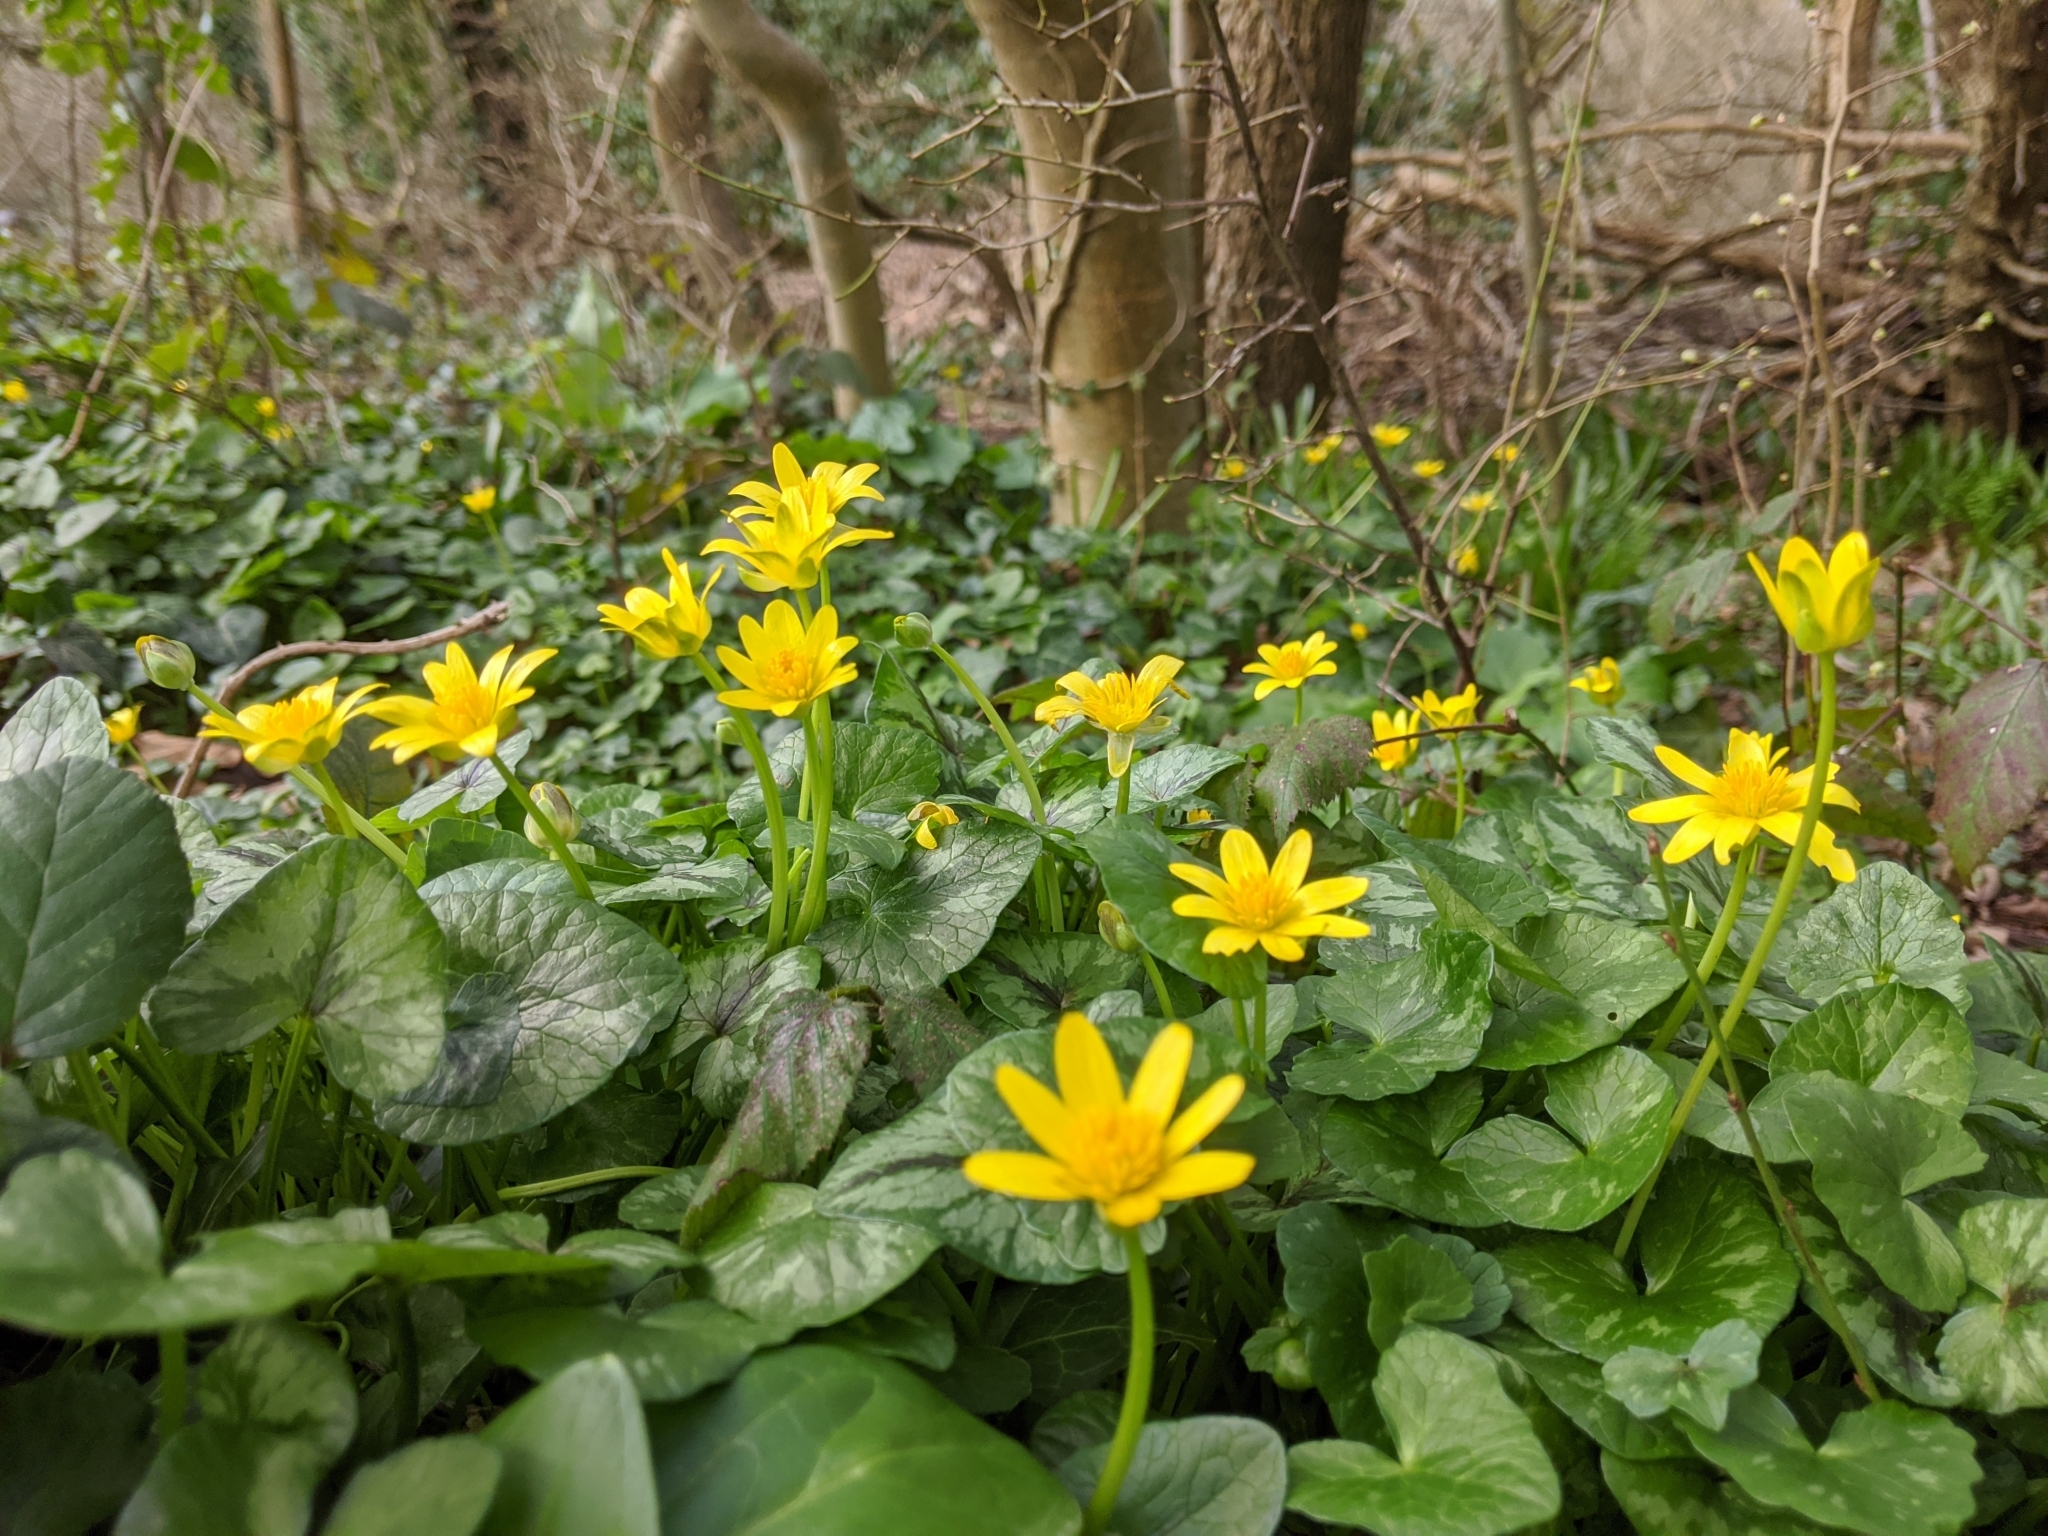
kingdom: Plantae
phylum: Tracheophyta
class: Magnoliopsida
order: Ranunculales
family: Ranunculaceae
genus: Ficaria
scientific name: Ficaria verna
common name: Lesser celandine
